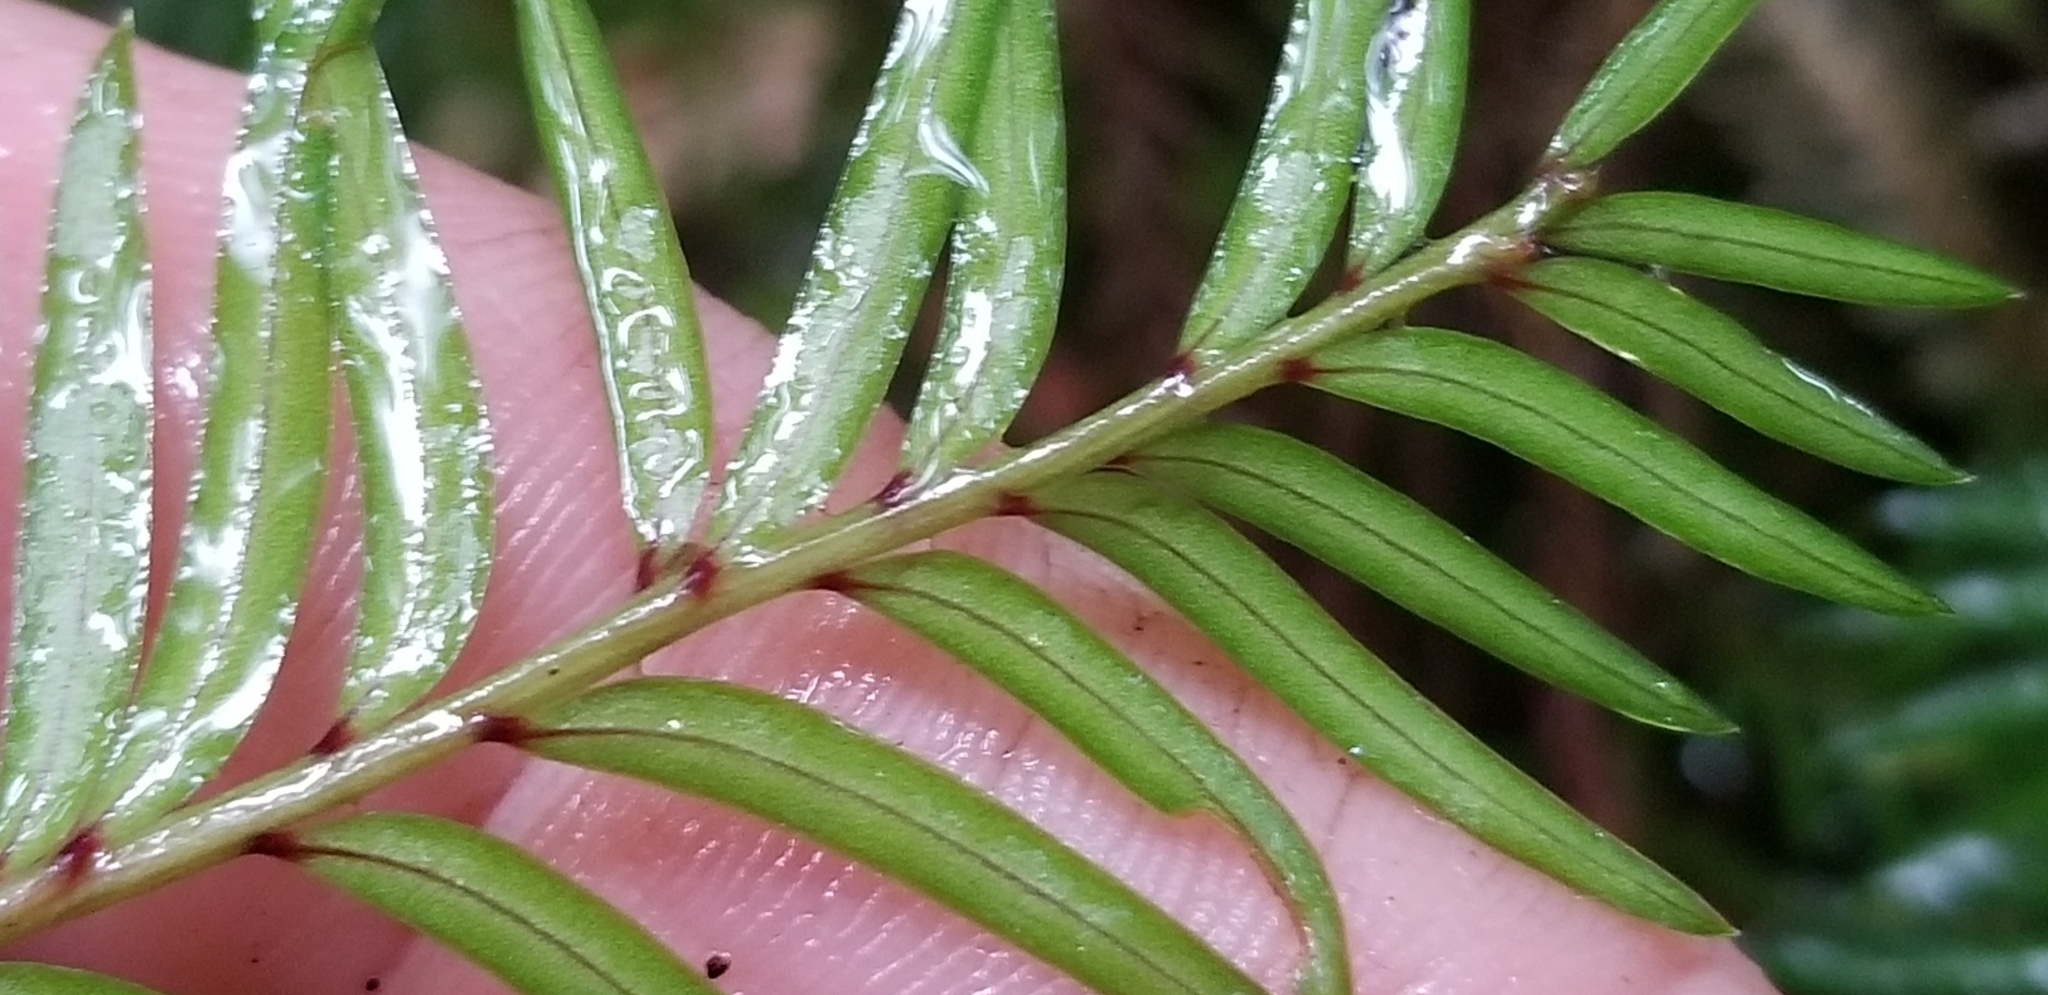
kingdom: Plantae
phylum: Tracheophyta
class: Pinopsida
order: Pinales
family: Podocarpaceae
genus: Prumnopitys
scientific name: Prumnopitys ferruginea
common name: Brown pine
